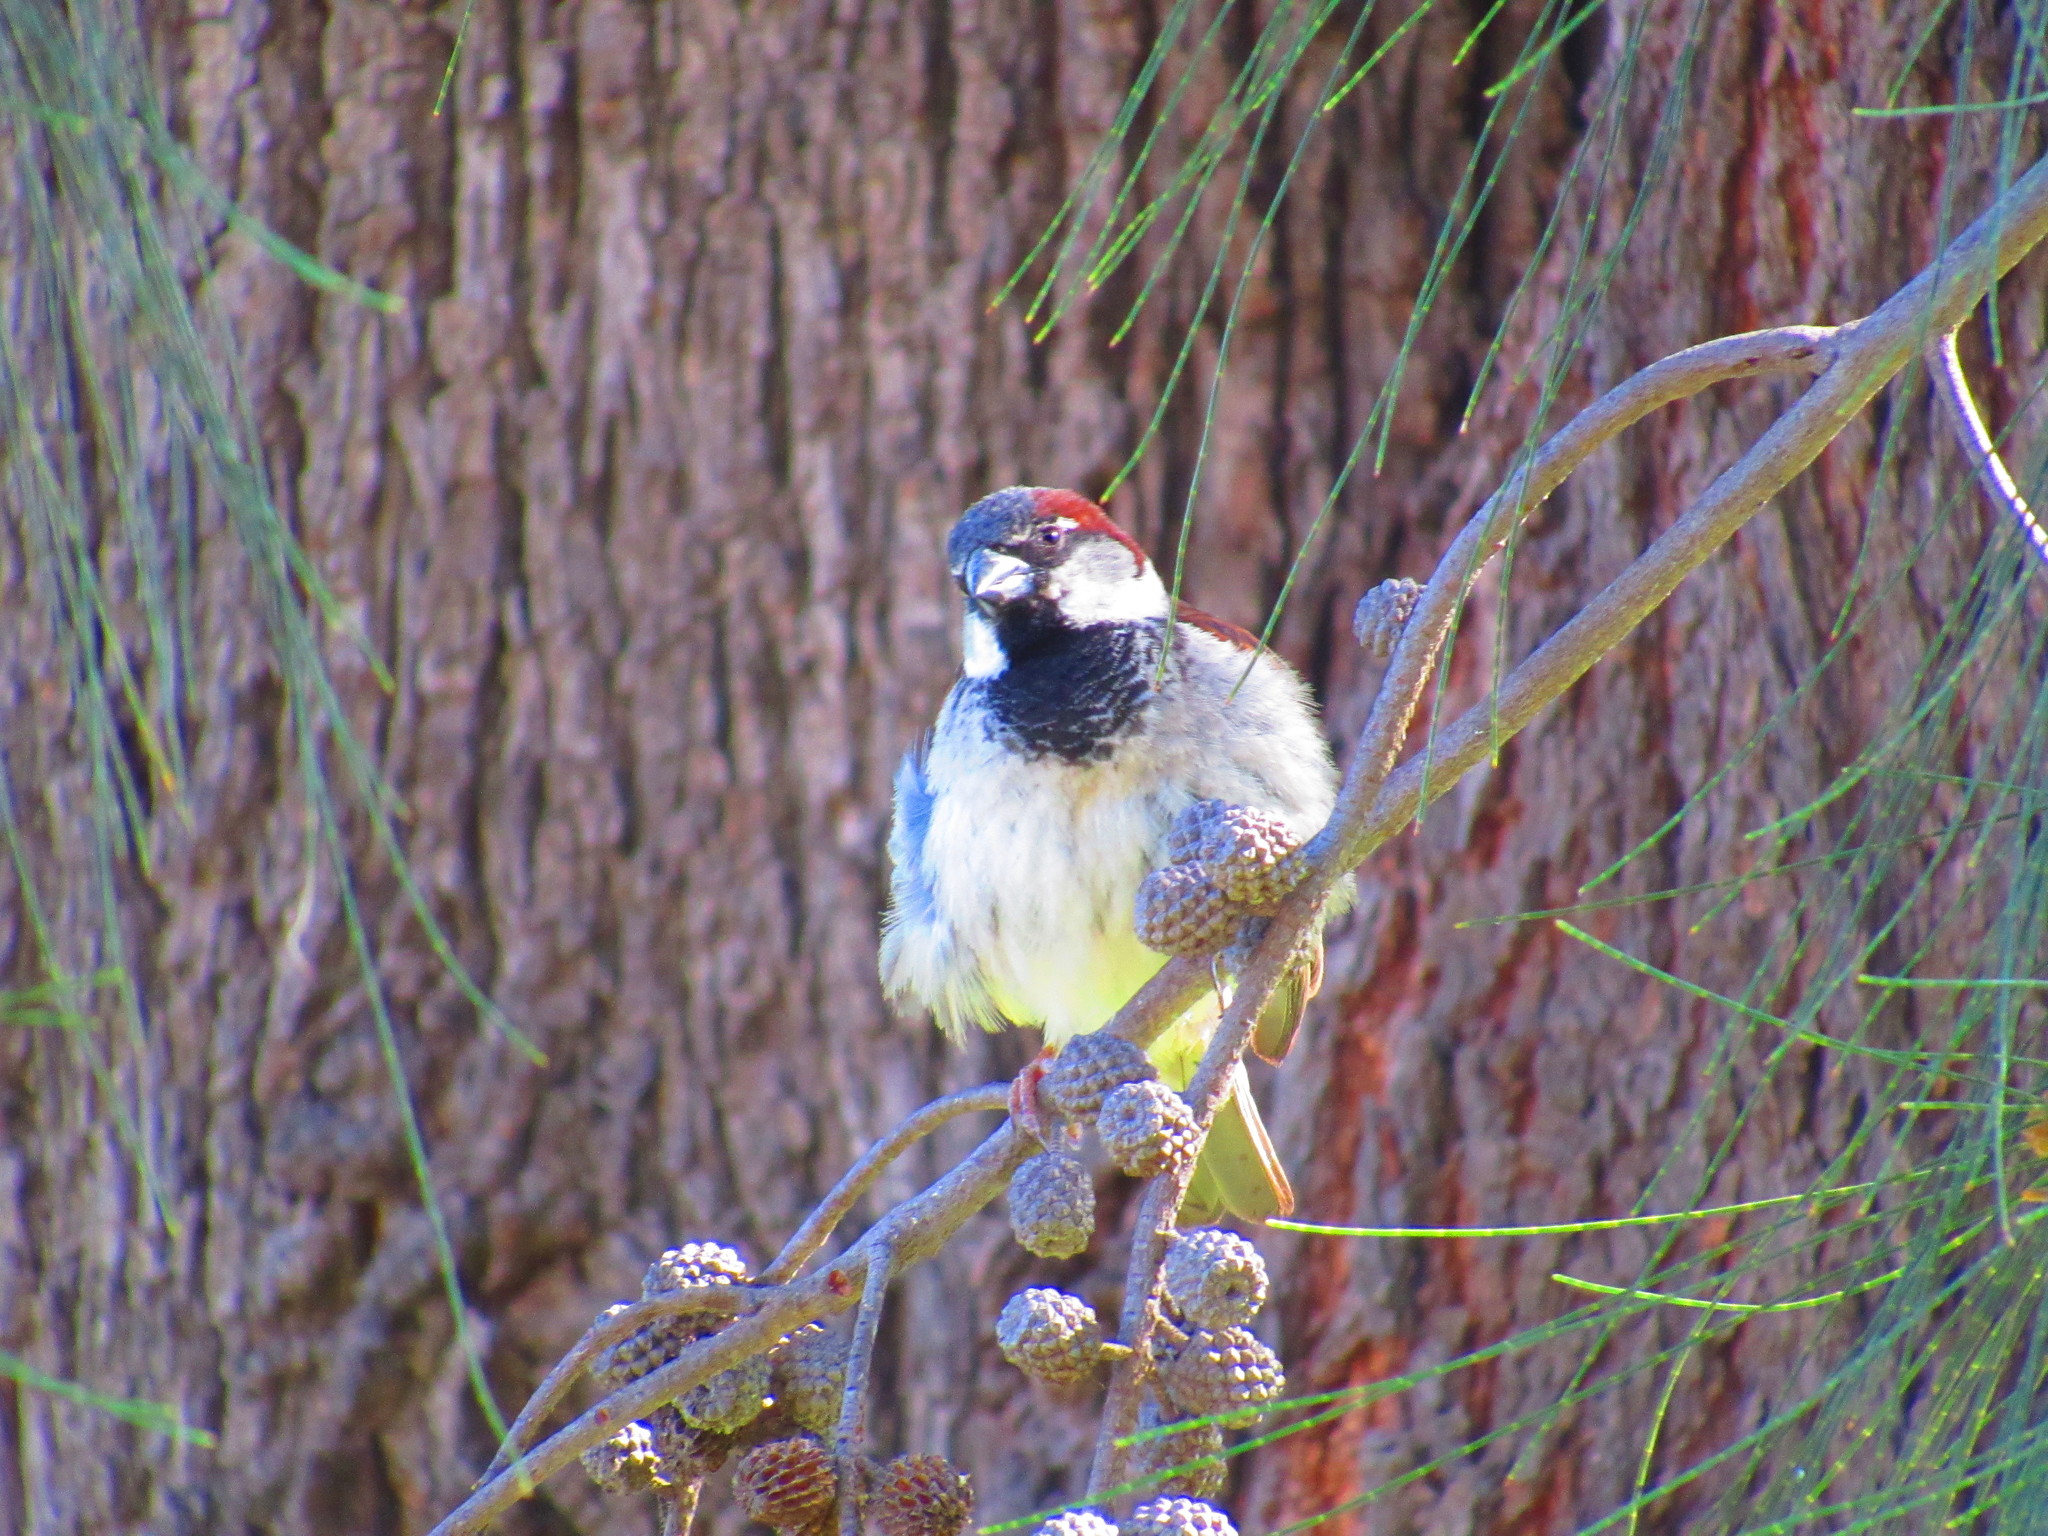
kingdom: Animalia
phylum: Chordata
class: Aves
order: Passeriformes
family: Passeridae
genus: Passer
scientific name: Passer domesticus
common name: House sparrow
